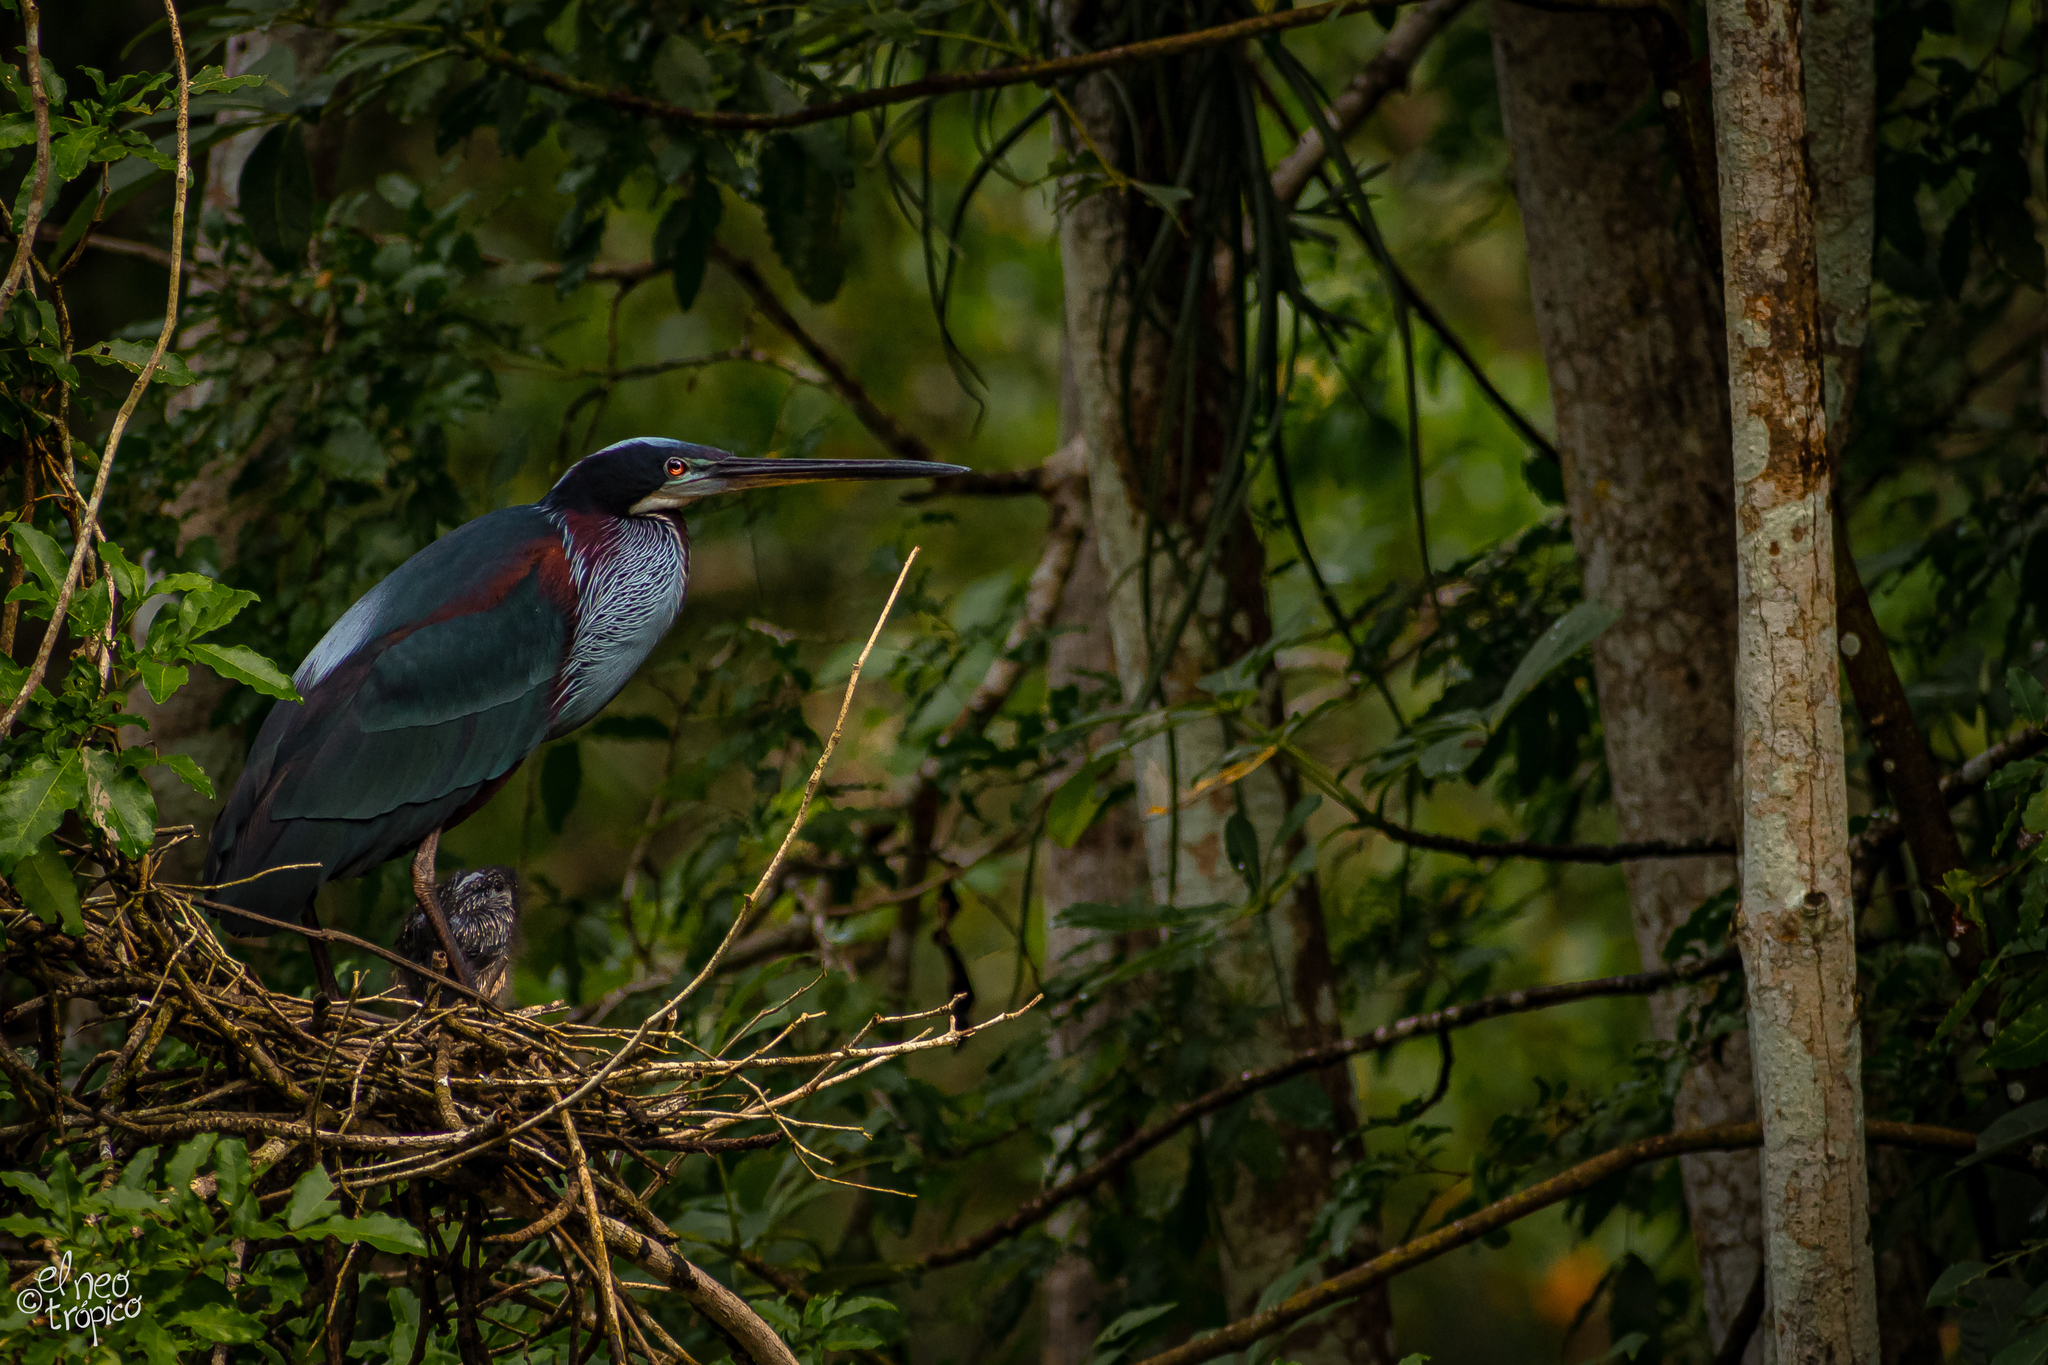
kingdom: Animalia
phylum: Chordata
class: Aves
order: Pelecaniformes
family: Ardeidae
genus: Agamia
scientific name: Agamia agami
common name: Agami heron
